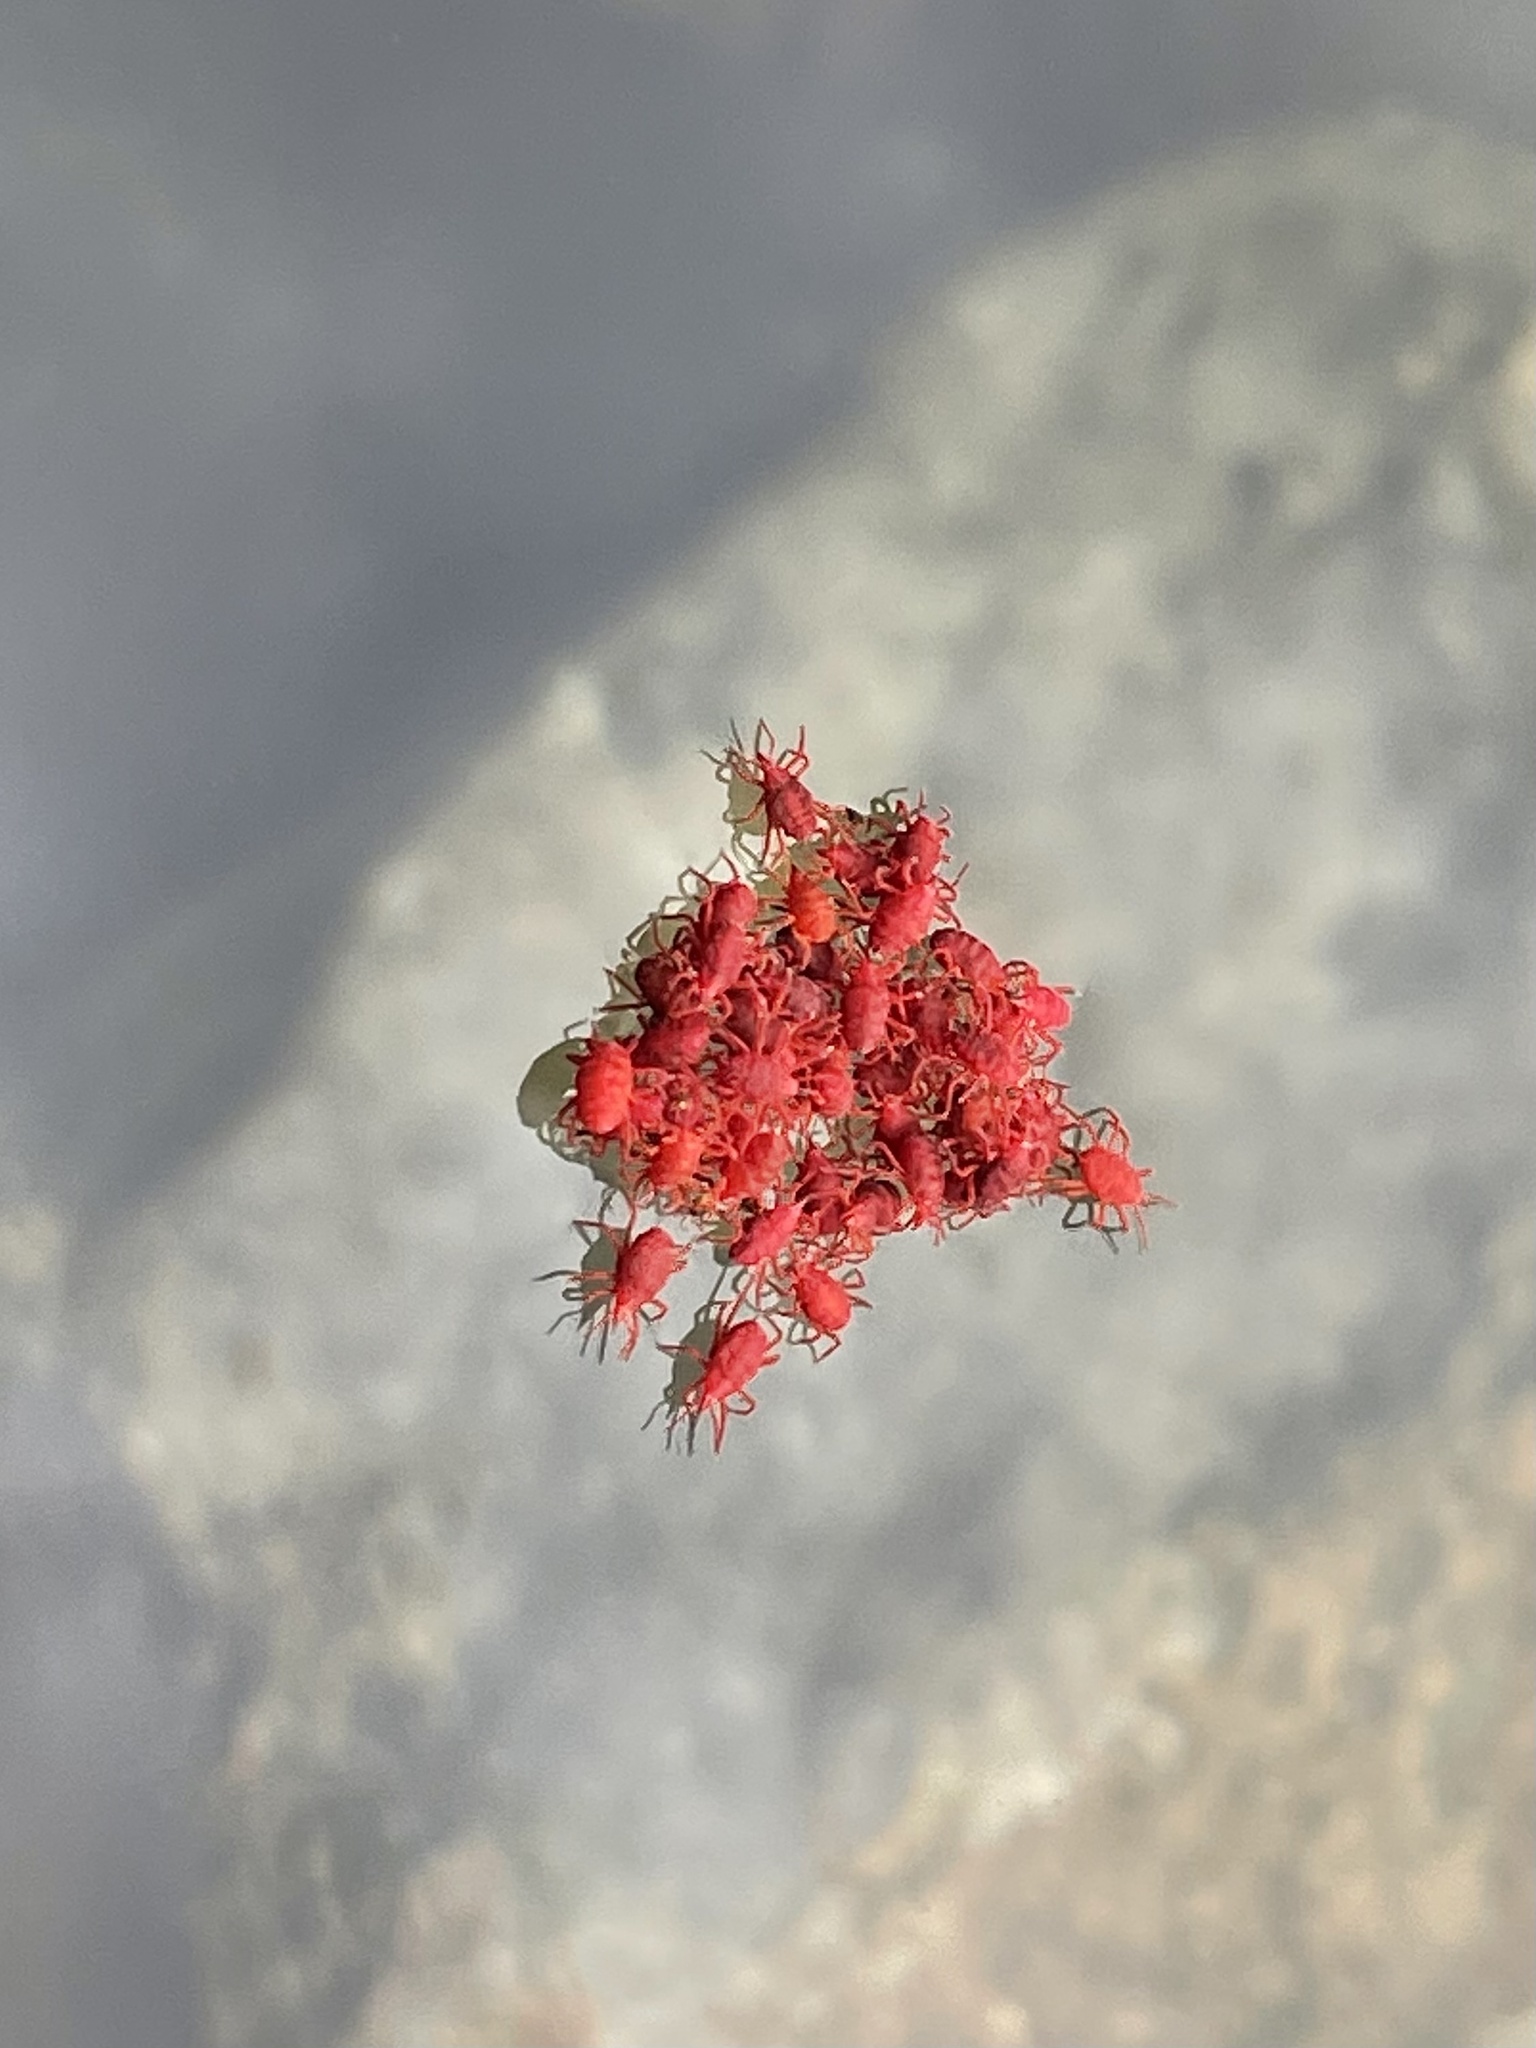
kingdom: Animalia
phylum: Arthropoda
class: Arachnida
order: Trombidiformes
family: Bdellidae
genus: Neomolgus
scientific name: Neomolgus littoralis
